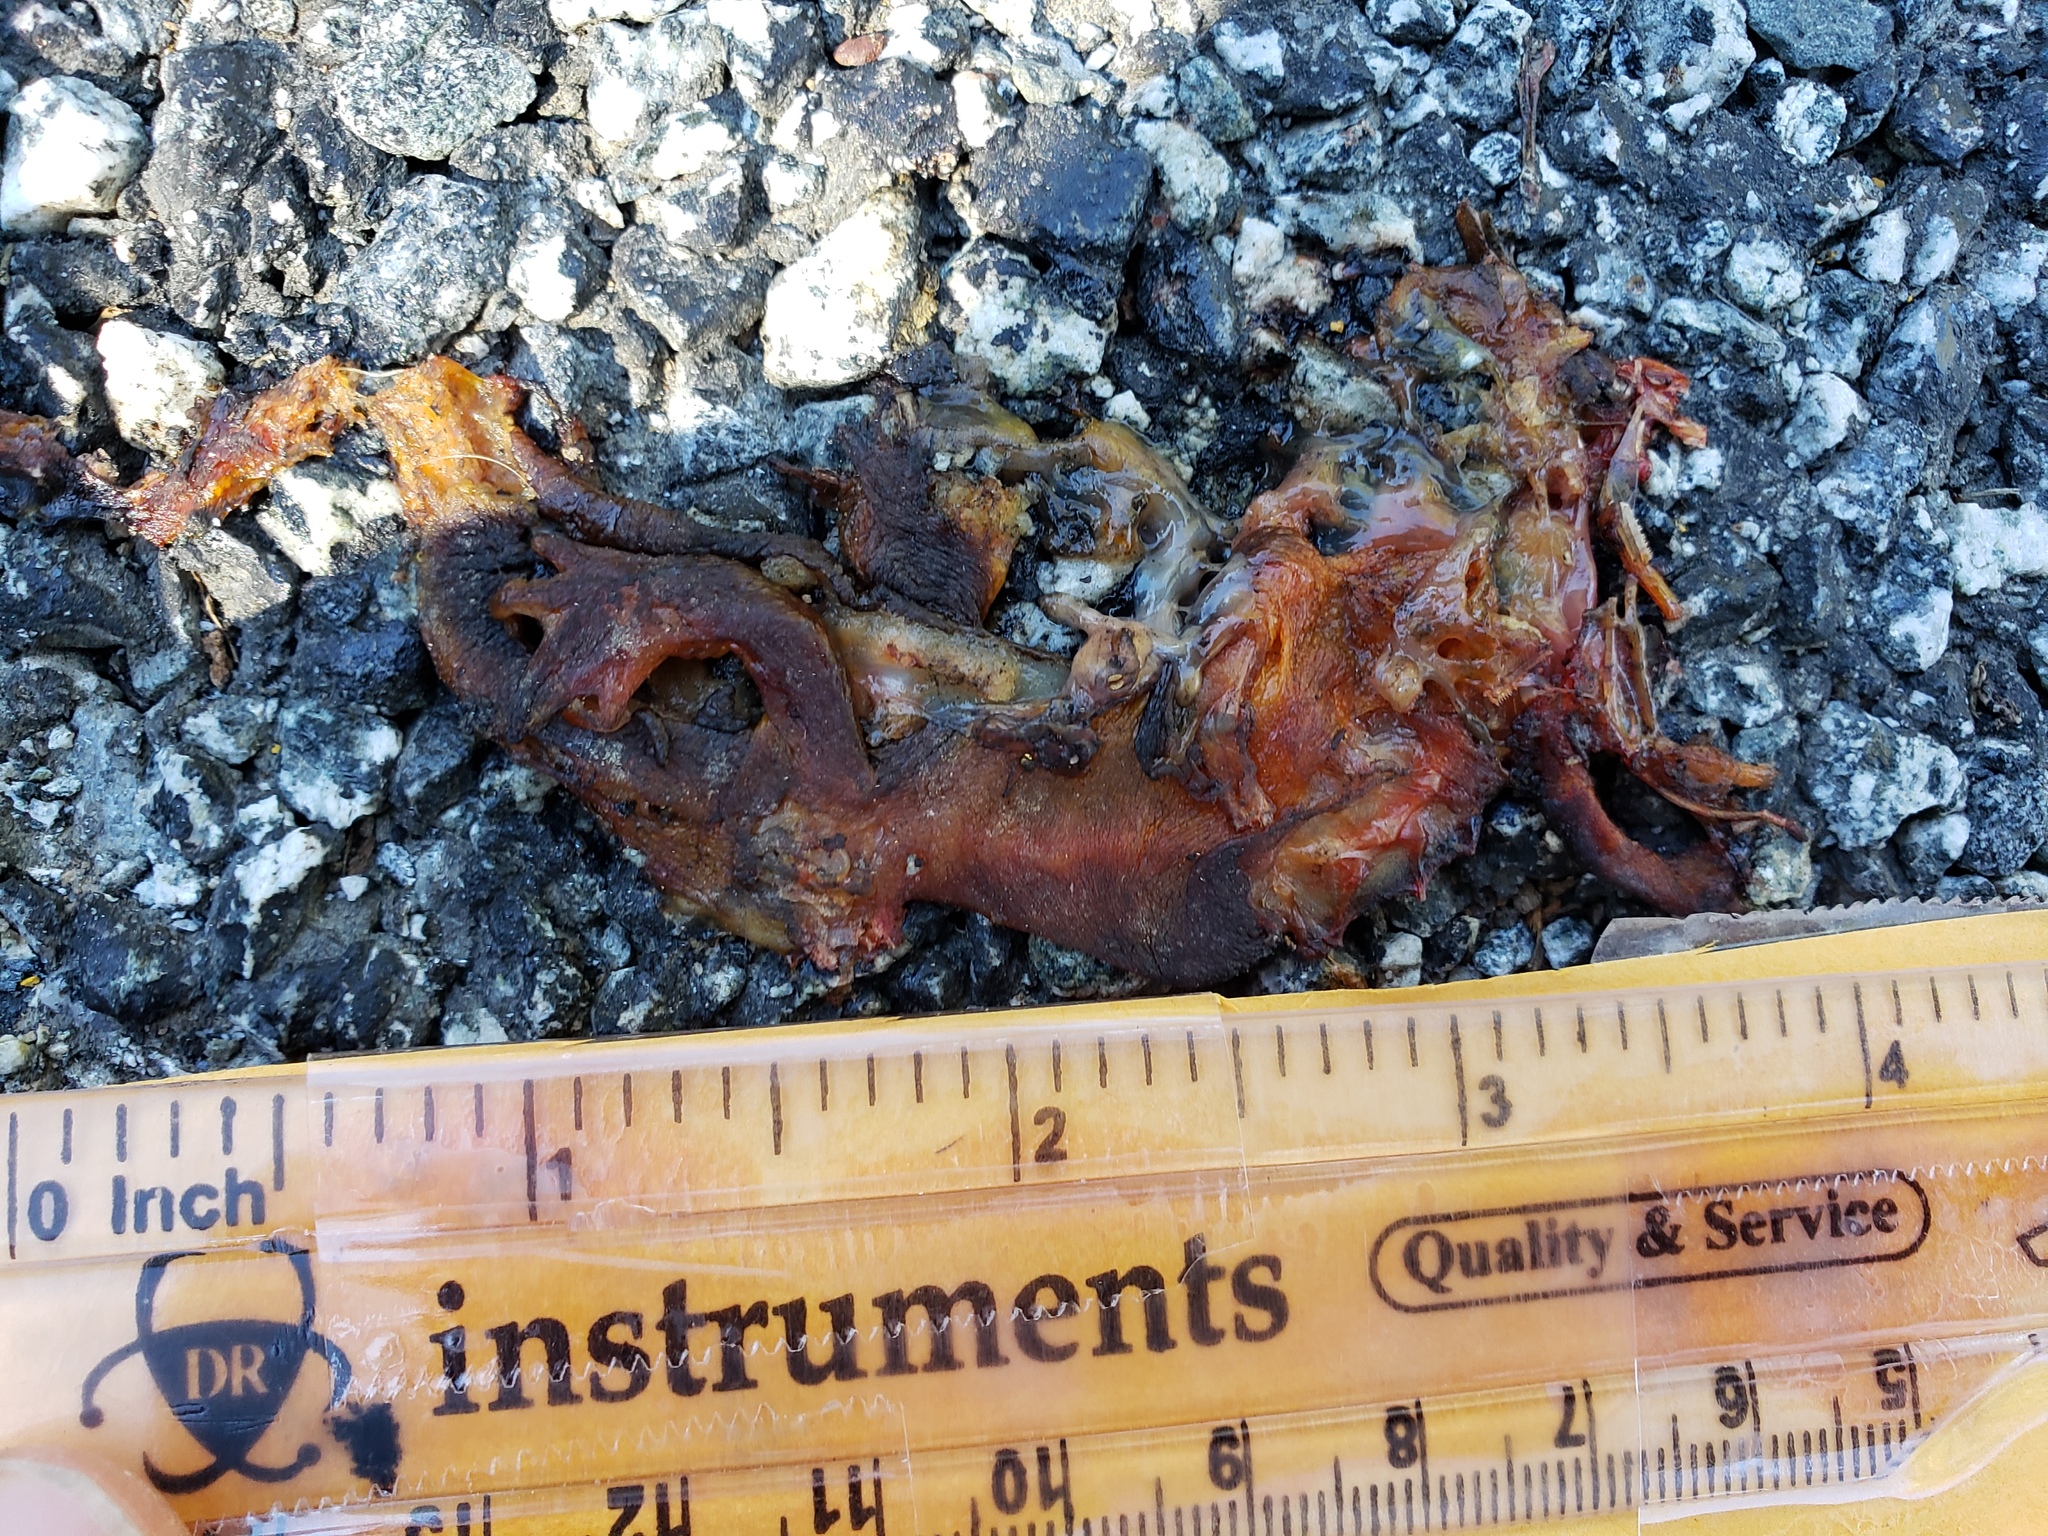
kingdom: Animalia
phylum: Chordata
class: Amphibia
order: Caudata
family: Salamandridae
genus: Taricha
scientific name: Taricha
